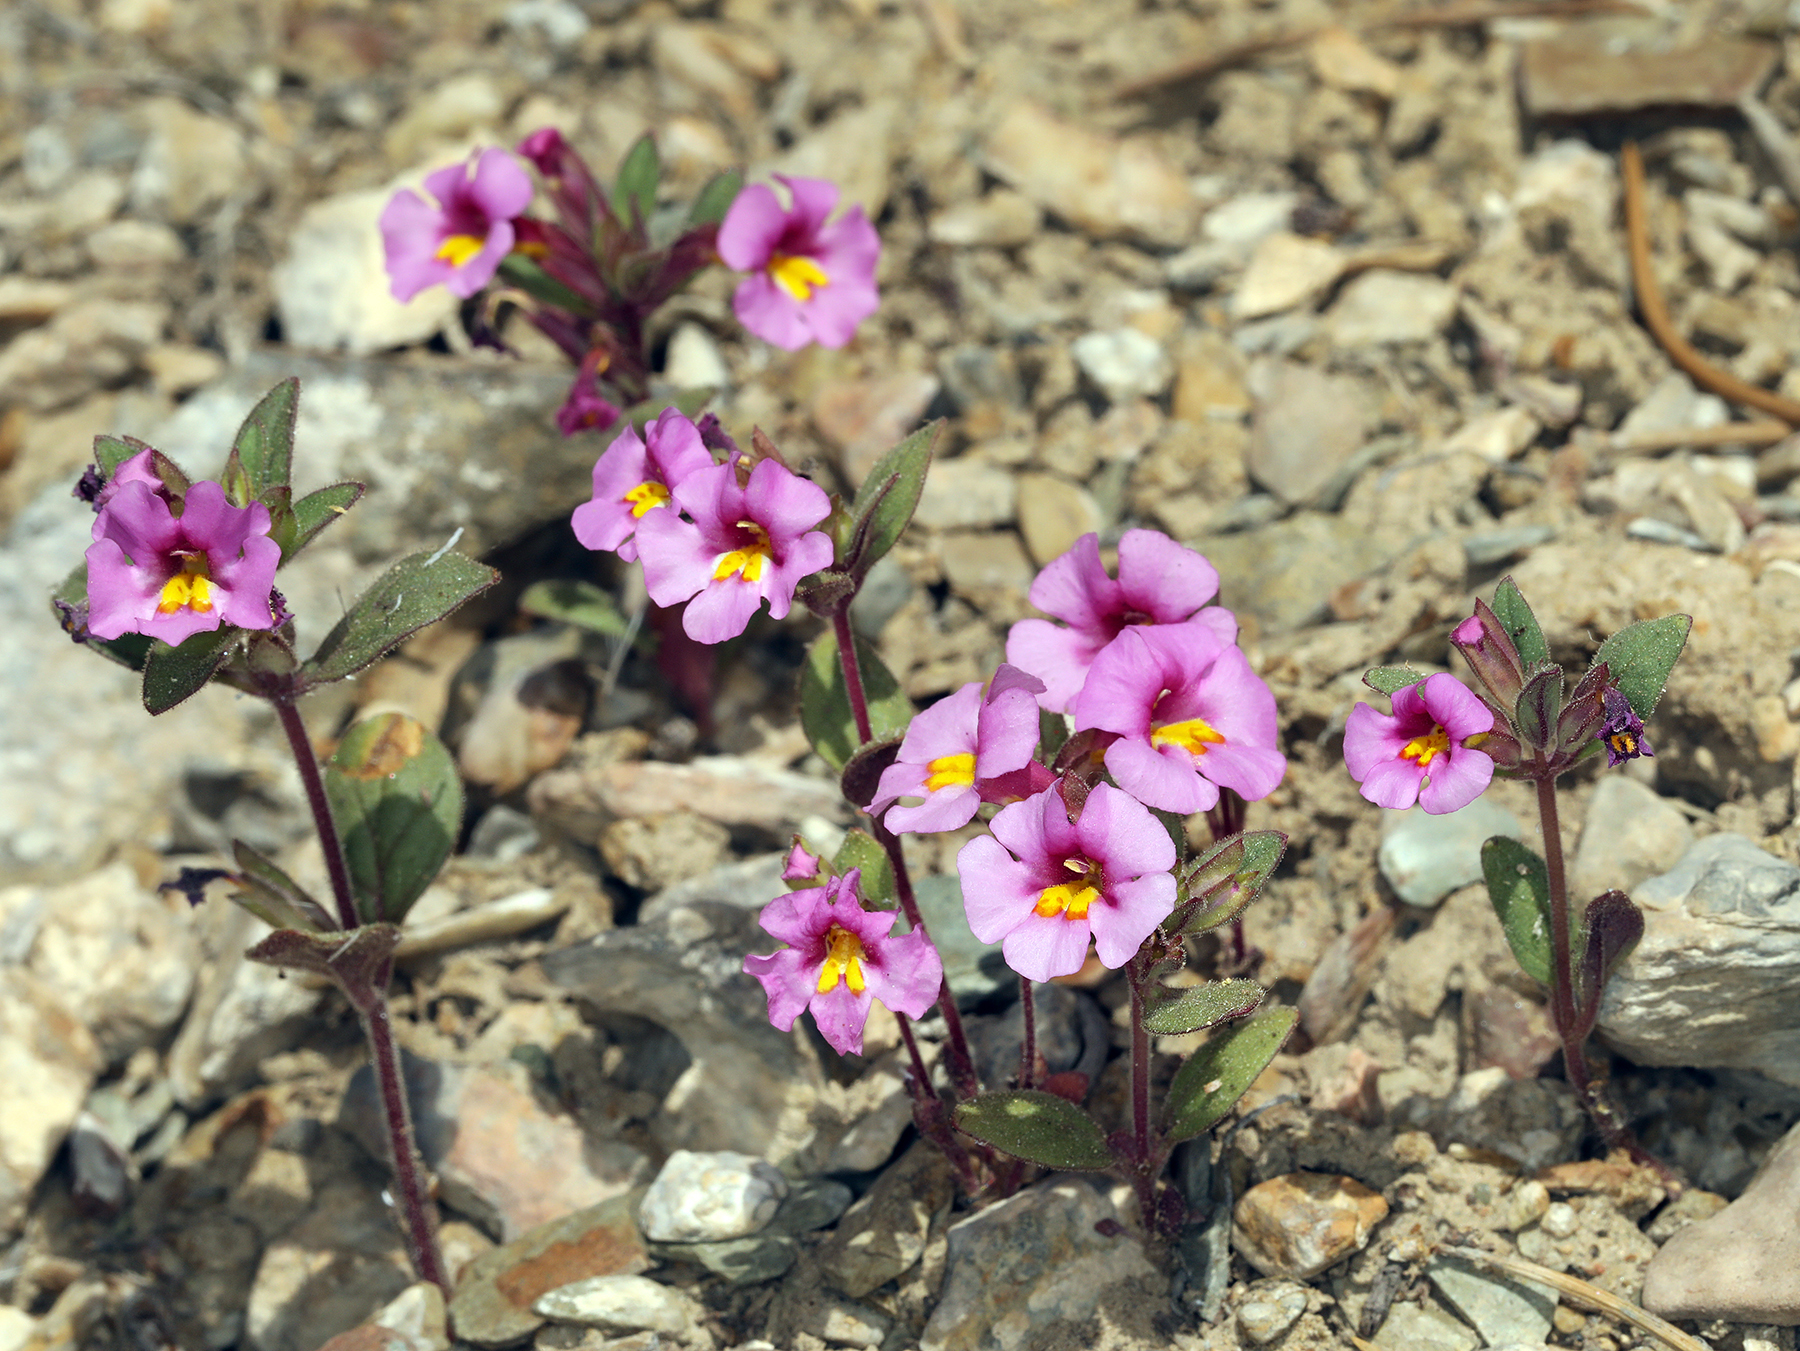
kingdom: Plantae
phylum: Tracheophyta
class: Magnoliopsida
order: Lamiales
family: Phrymaceae
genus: Diplacus
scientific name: Diplacus parryi
